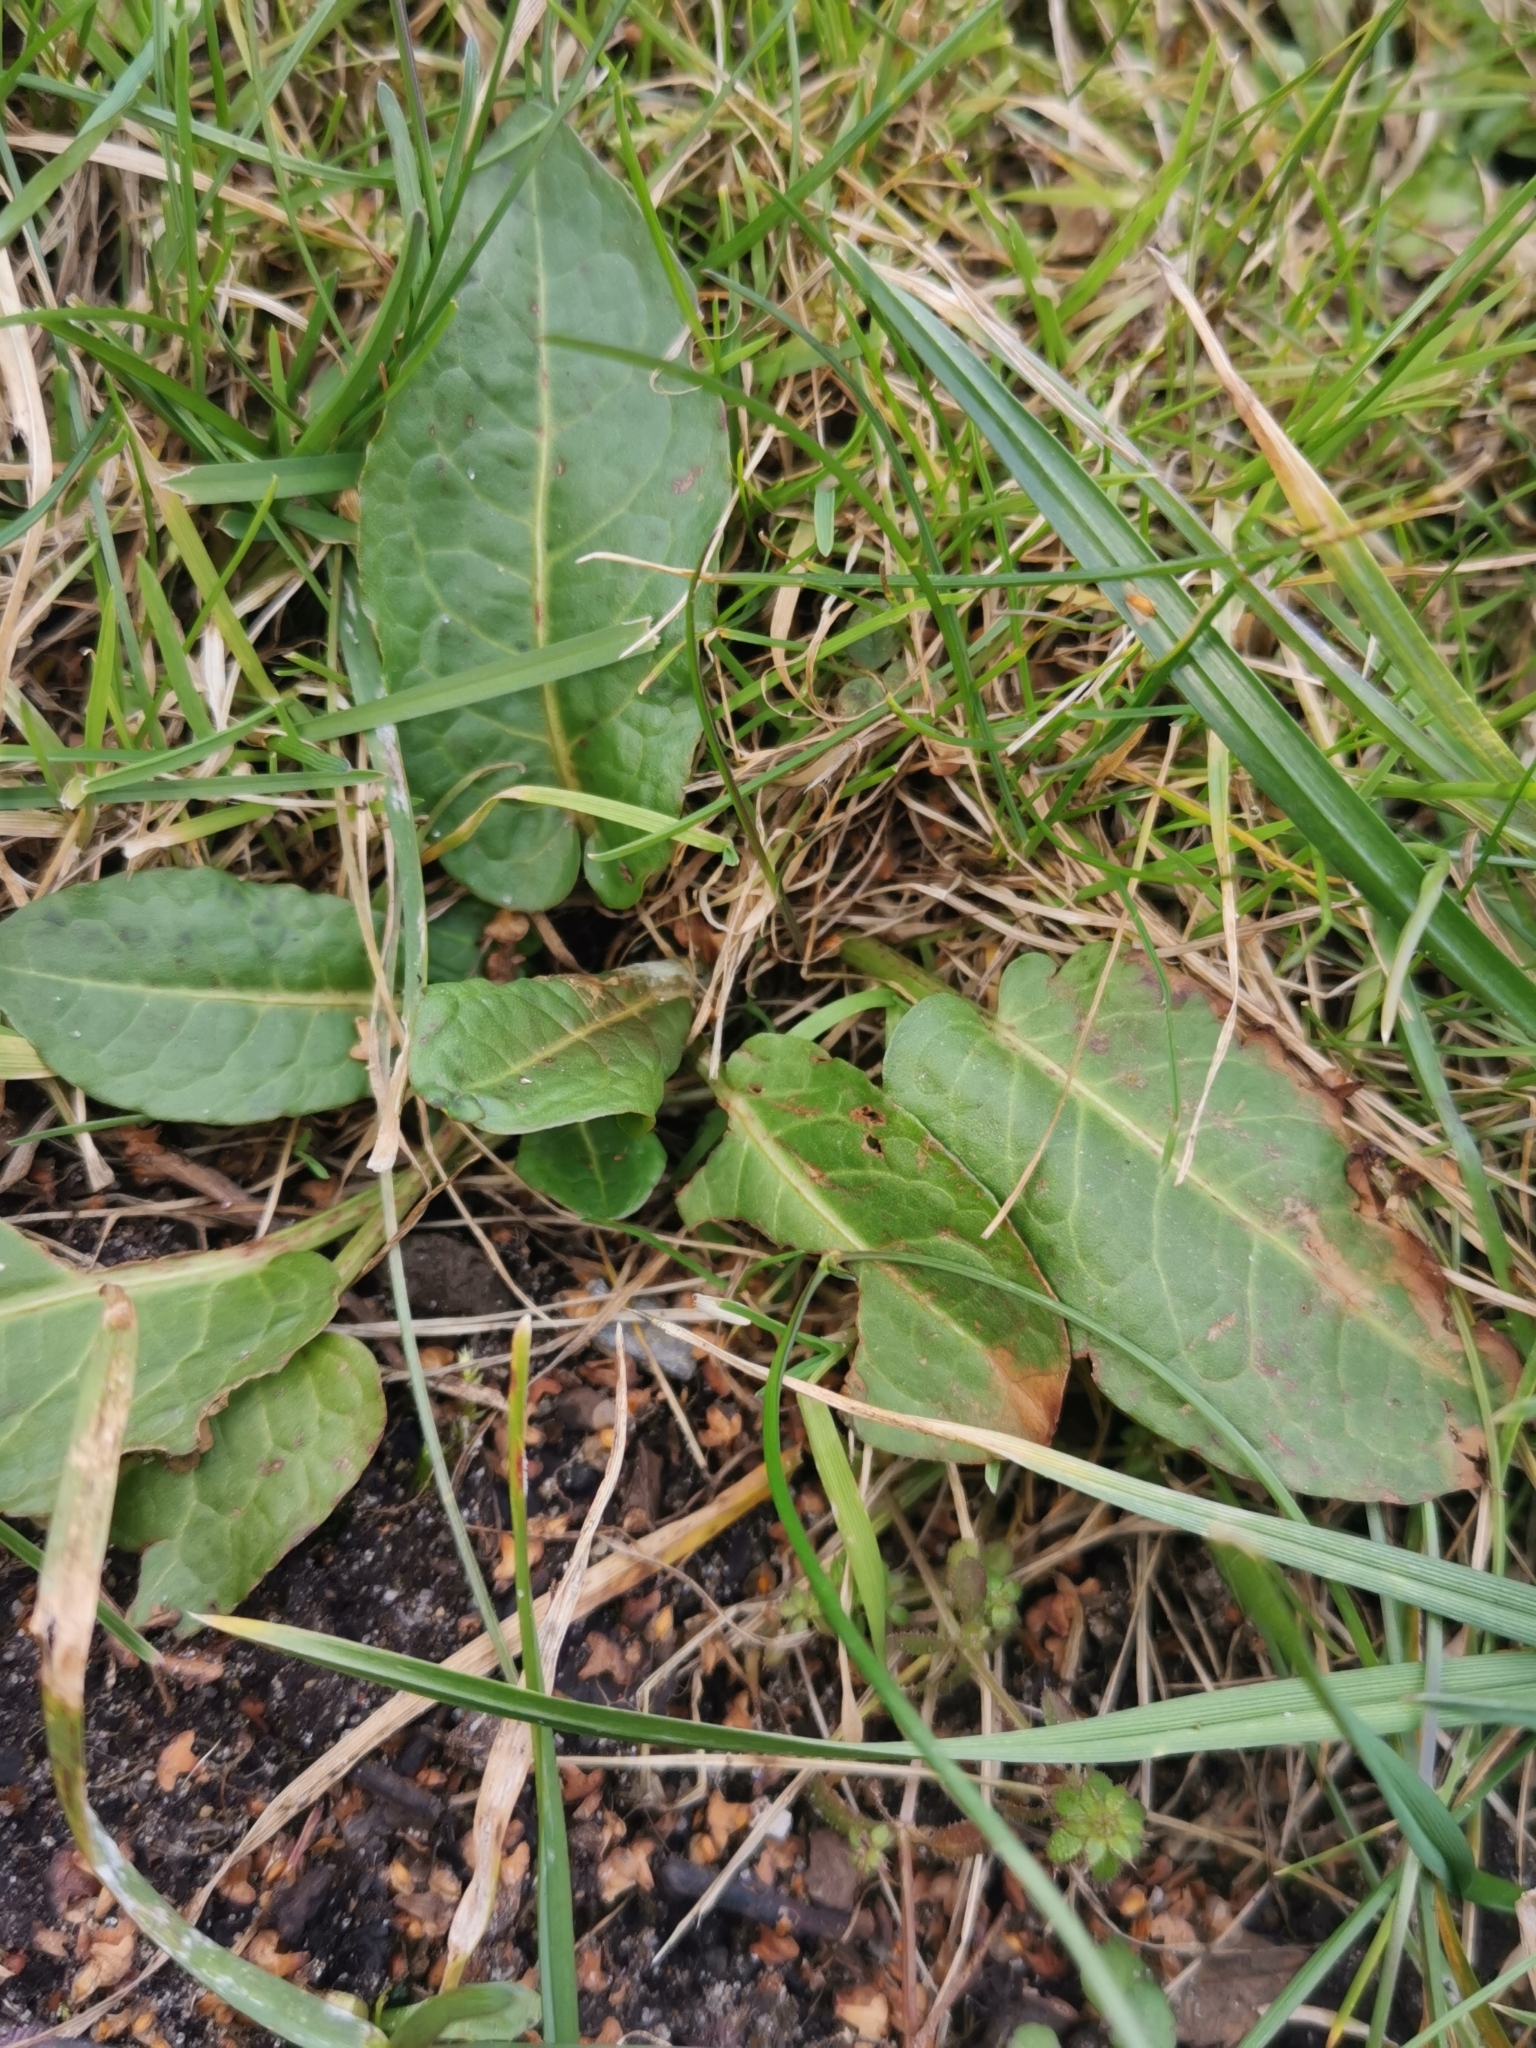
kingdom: Plantae
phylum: Tracheophyta
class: Magnoliopsida
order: Caryophyllales
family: Polygonaceae
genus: Rumex
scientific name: Rumex obtusifolius
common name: Bitter dock
